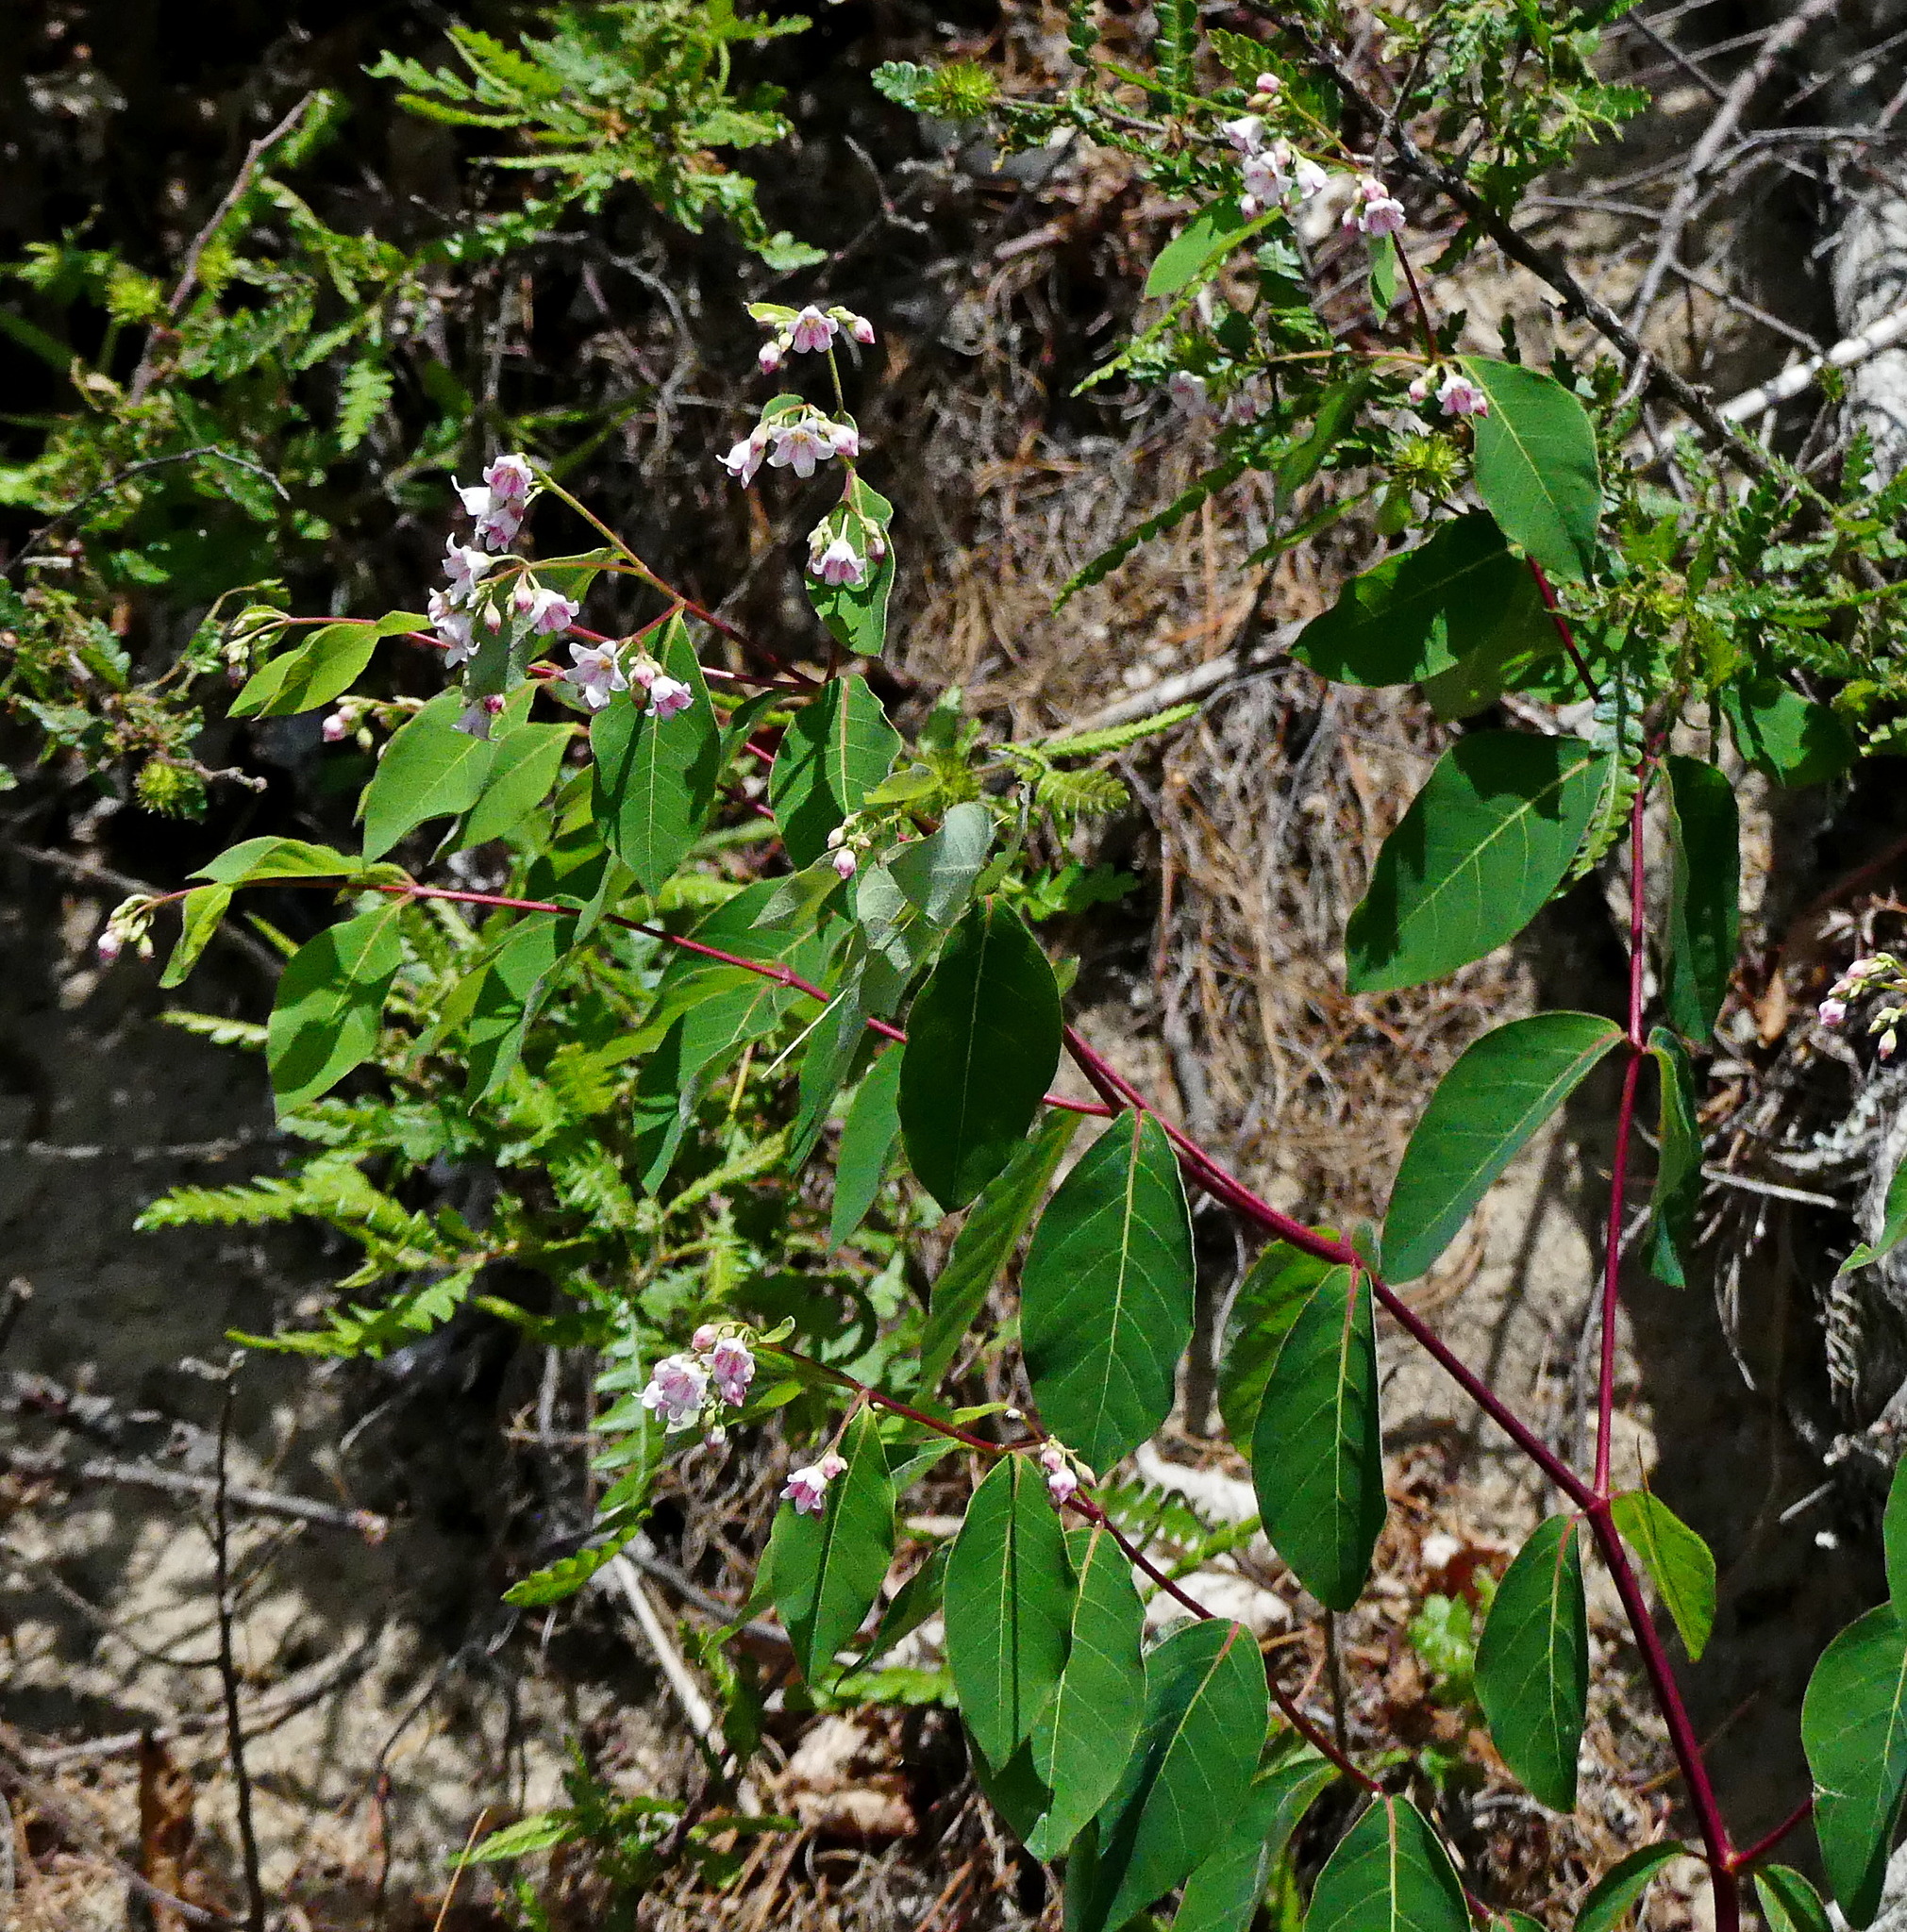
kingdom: Plantae
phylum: Tracheophyta
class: Magnoliopsida
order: Gentianales
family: Apocynaceae
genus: Apocynum
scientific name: Apocynum androsaemifolium
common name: Spreading dogbane
